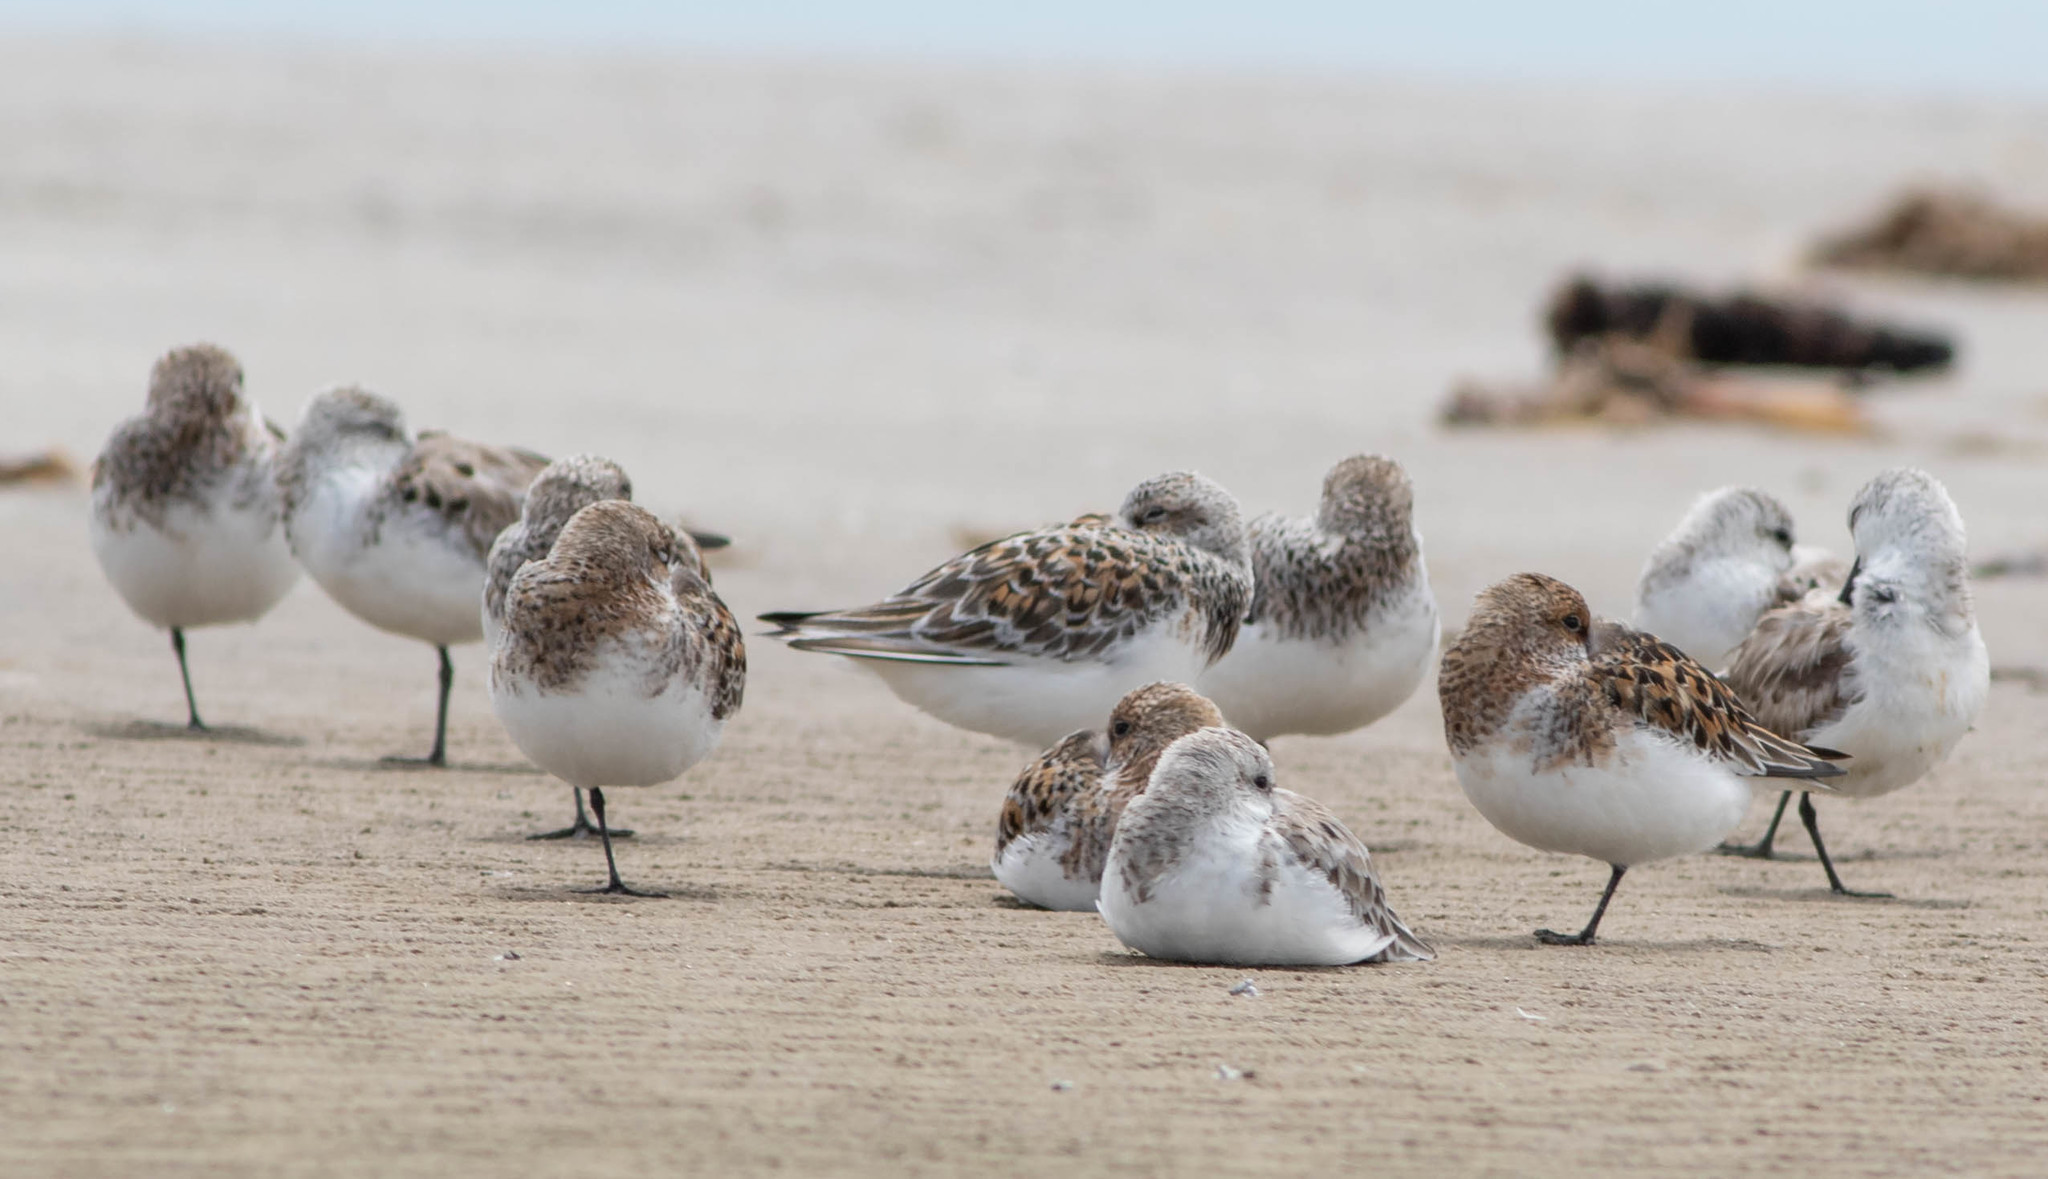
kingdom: Animalia
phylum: Chordata
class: Aves
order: Charadriiformes
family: Scolopacidae
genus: Calidris
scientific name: Calidris alba
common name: Sanderling
